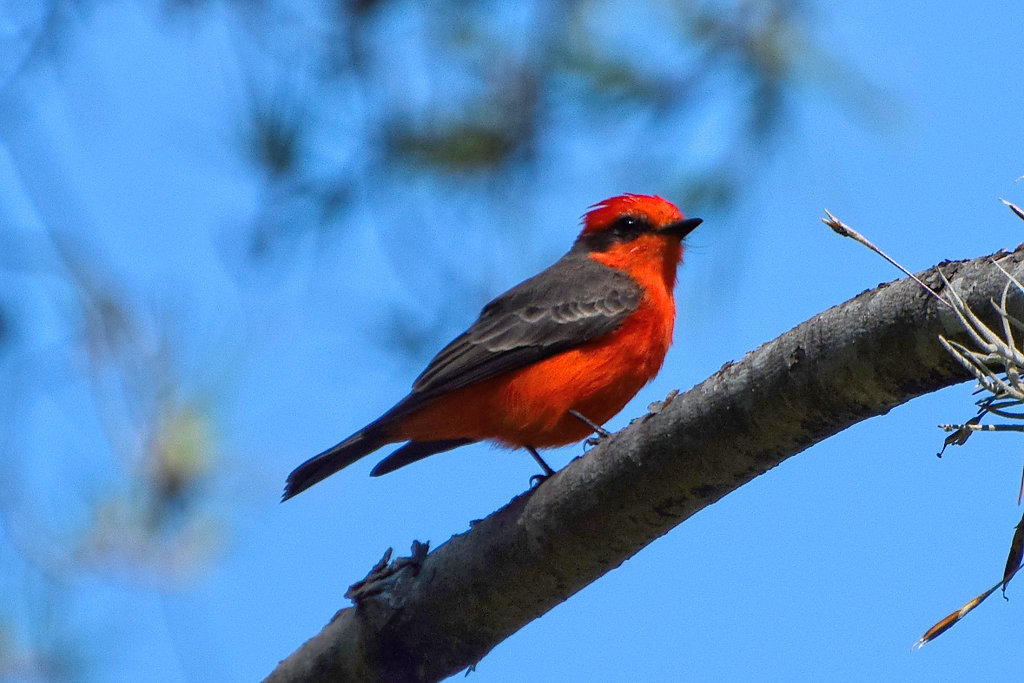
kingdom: Animalia
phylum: Chordata
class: Aves
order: Passeriformes
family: Tyrannidae
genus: Pyrocephalus
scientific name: Pyrocephalus rubinus
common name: Vermilion flycatcher
